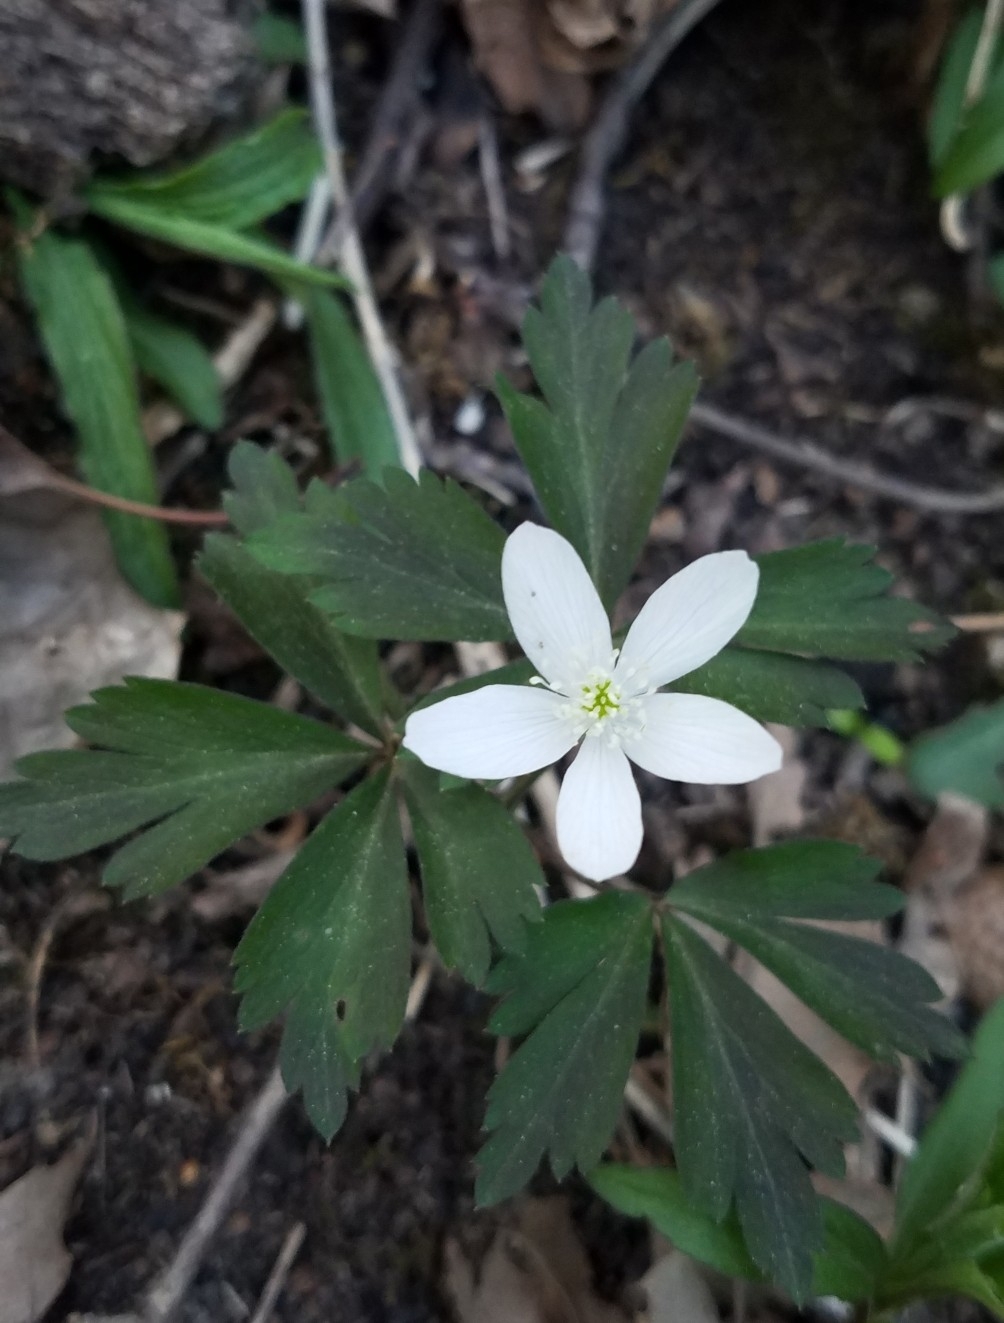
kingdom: Plantae
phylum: Tracheophyta
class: Magnoliopsida
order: Ranunculales
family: Ranunculaceae
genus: Anemone
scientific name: Anemone quinquefolia
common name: Wood anemone
